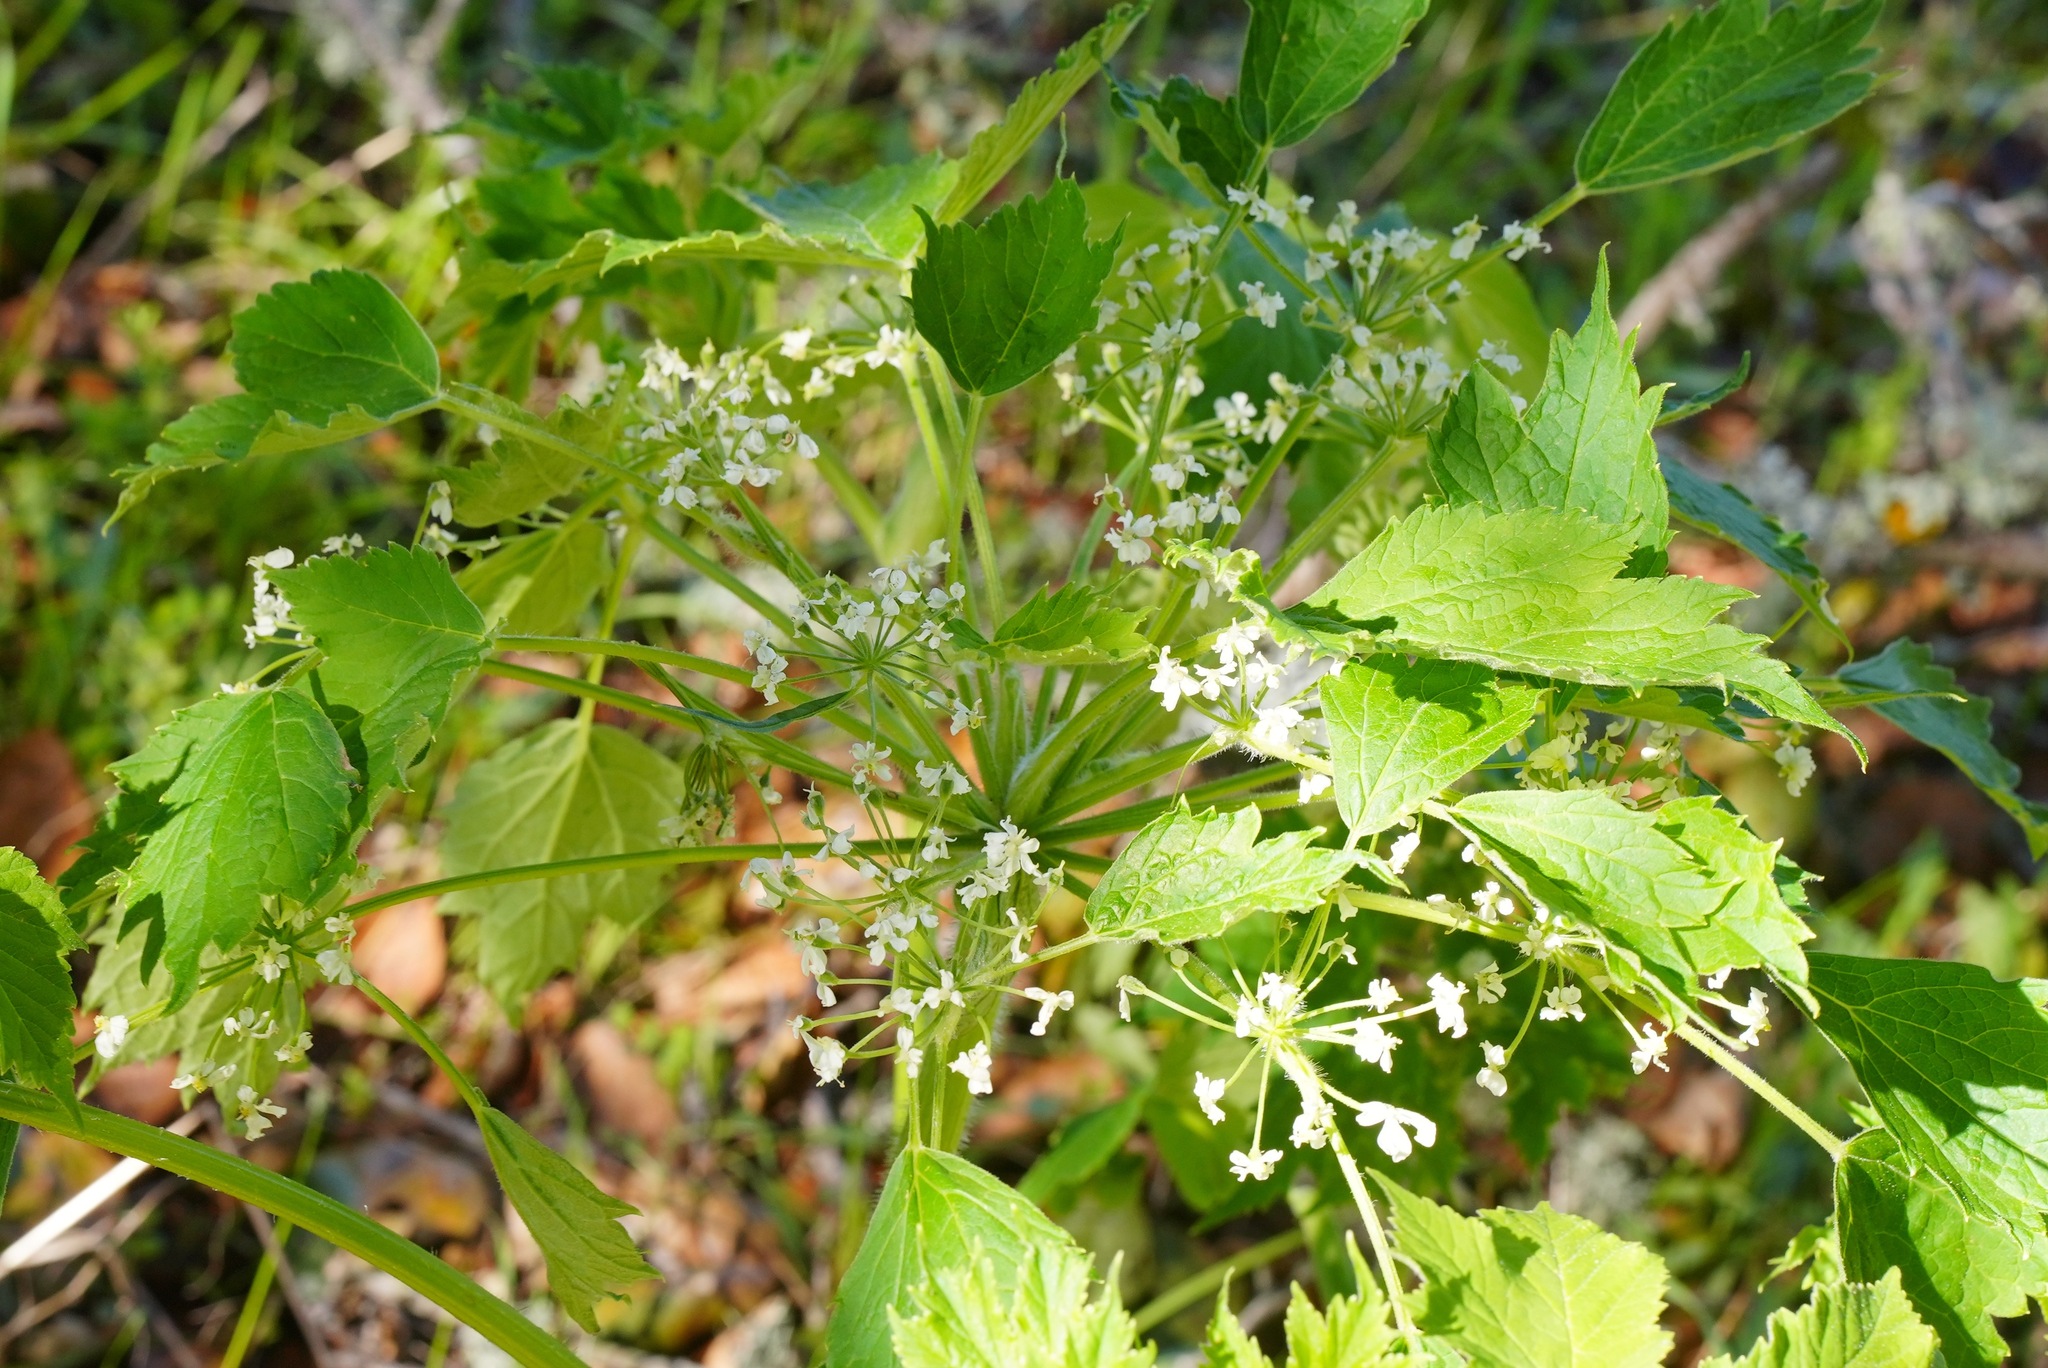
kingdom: Plantae
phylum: Tracheophyta
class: Magnoliopsida
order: Apiales
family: Apiaceae
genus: Heracleum
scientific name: Heracleum maximum
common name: American cow parsnip
